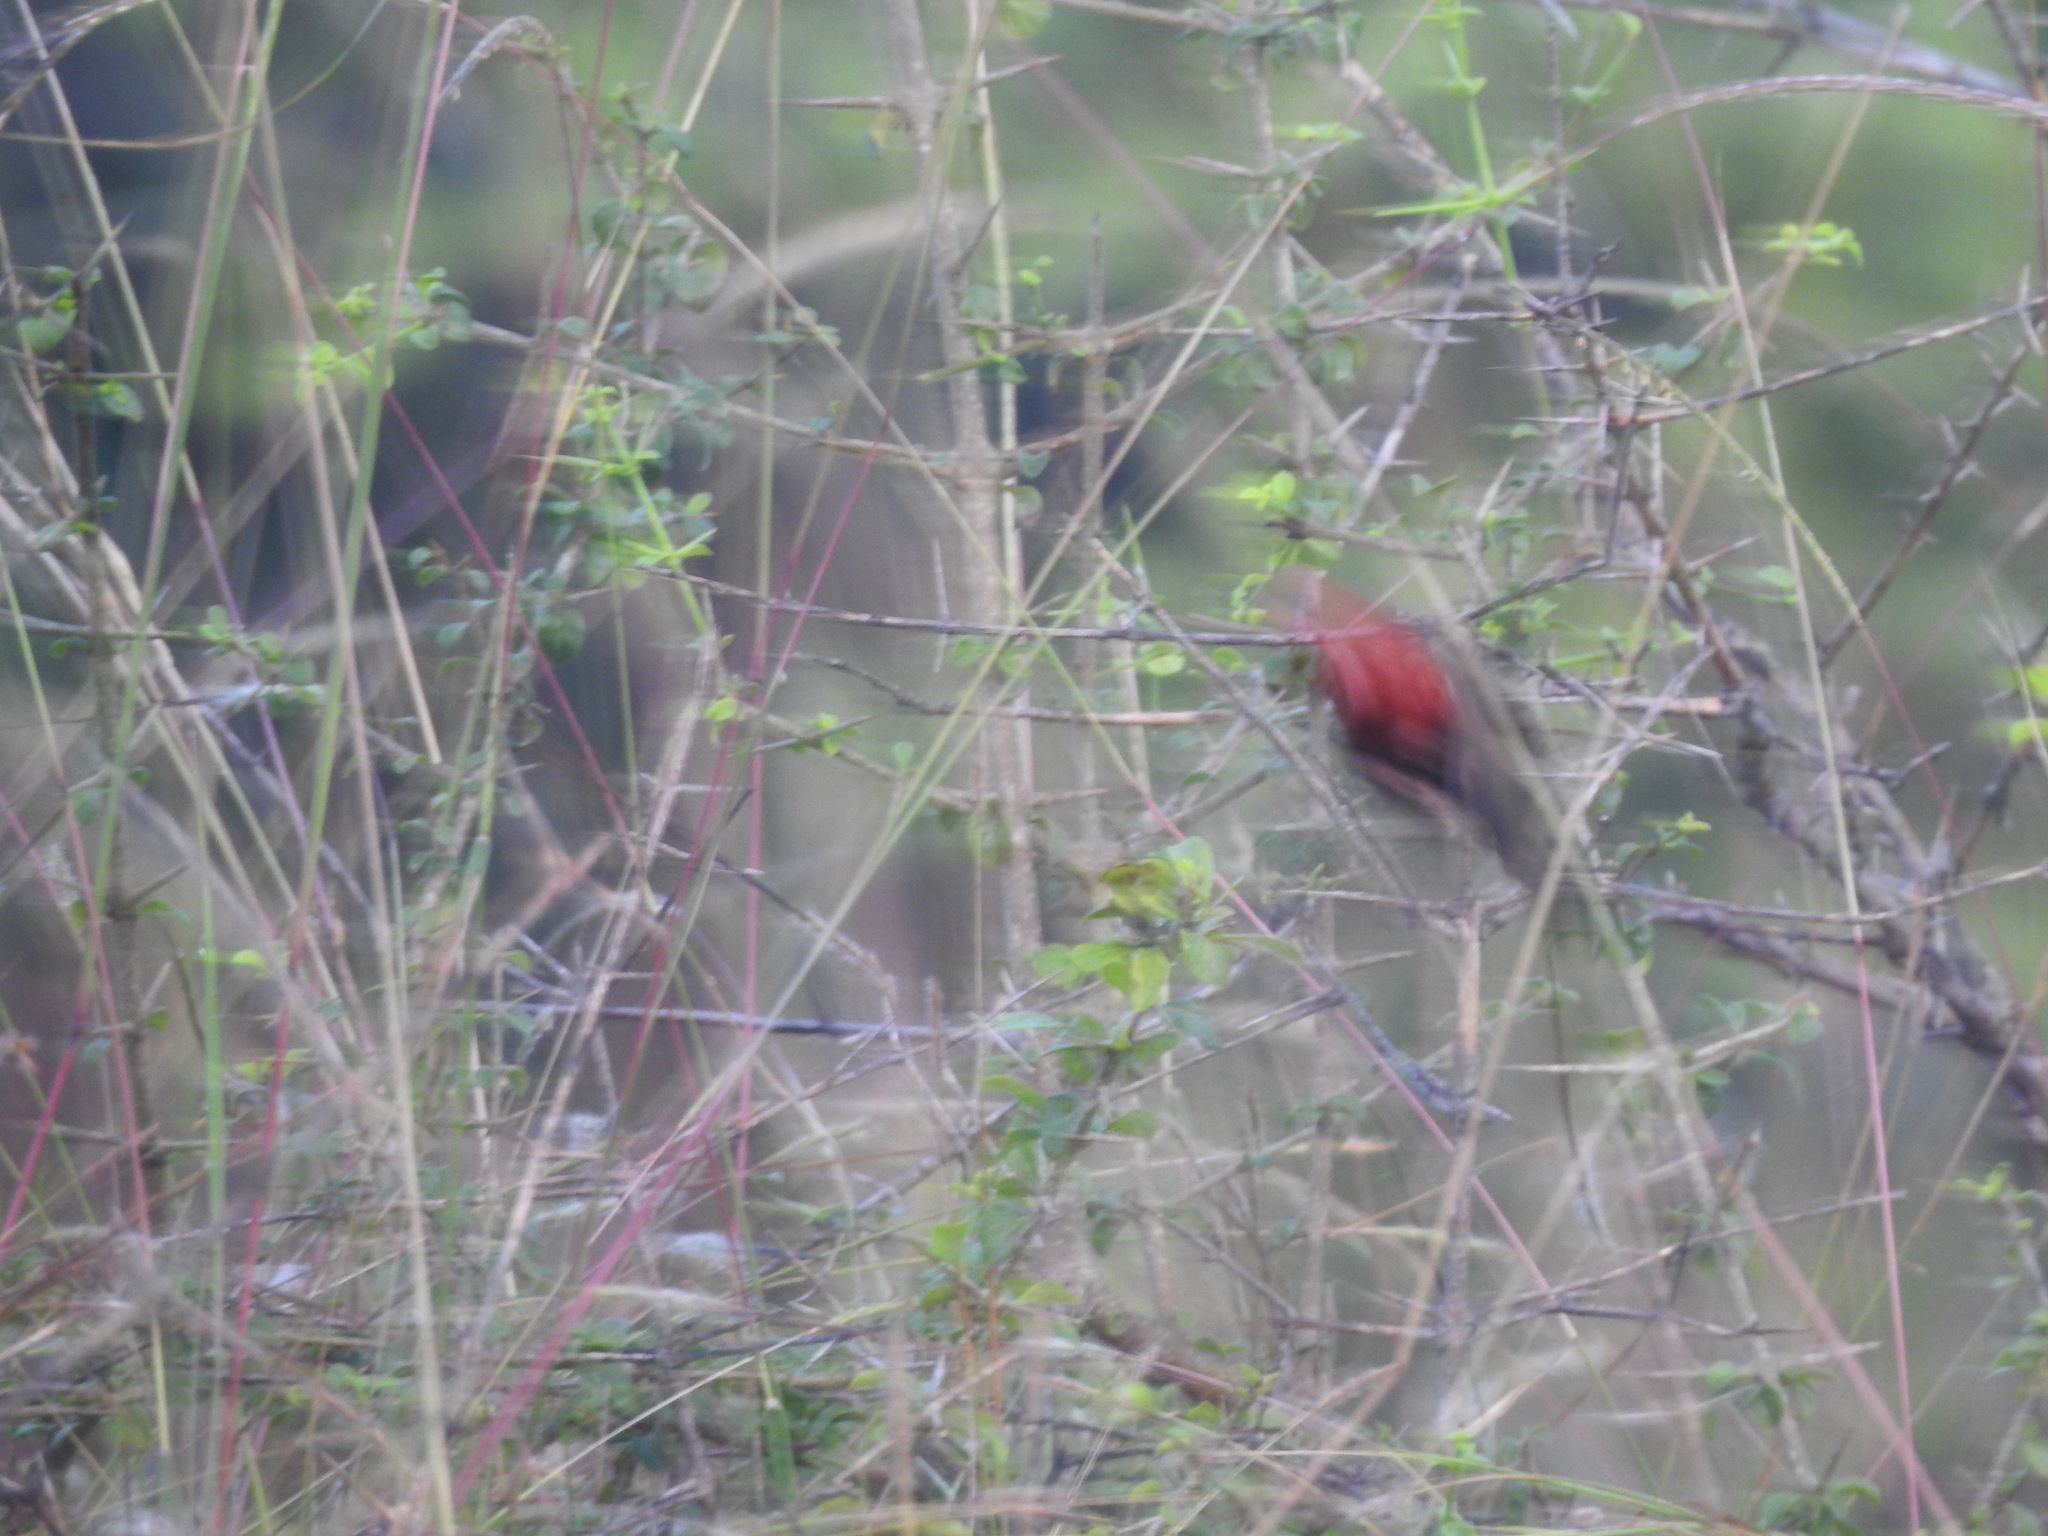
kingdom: Animalia
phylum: Chordata
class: Aves
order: Passeriformes
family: Estrildidae
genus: Amandava
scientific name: Amandava amandava
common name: Red avadavat
